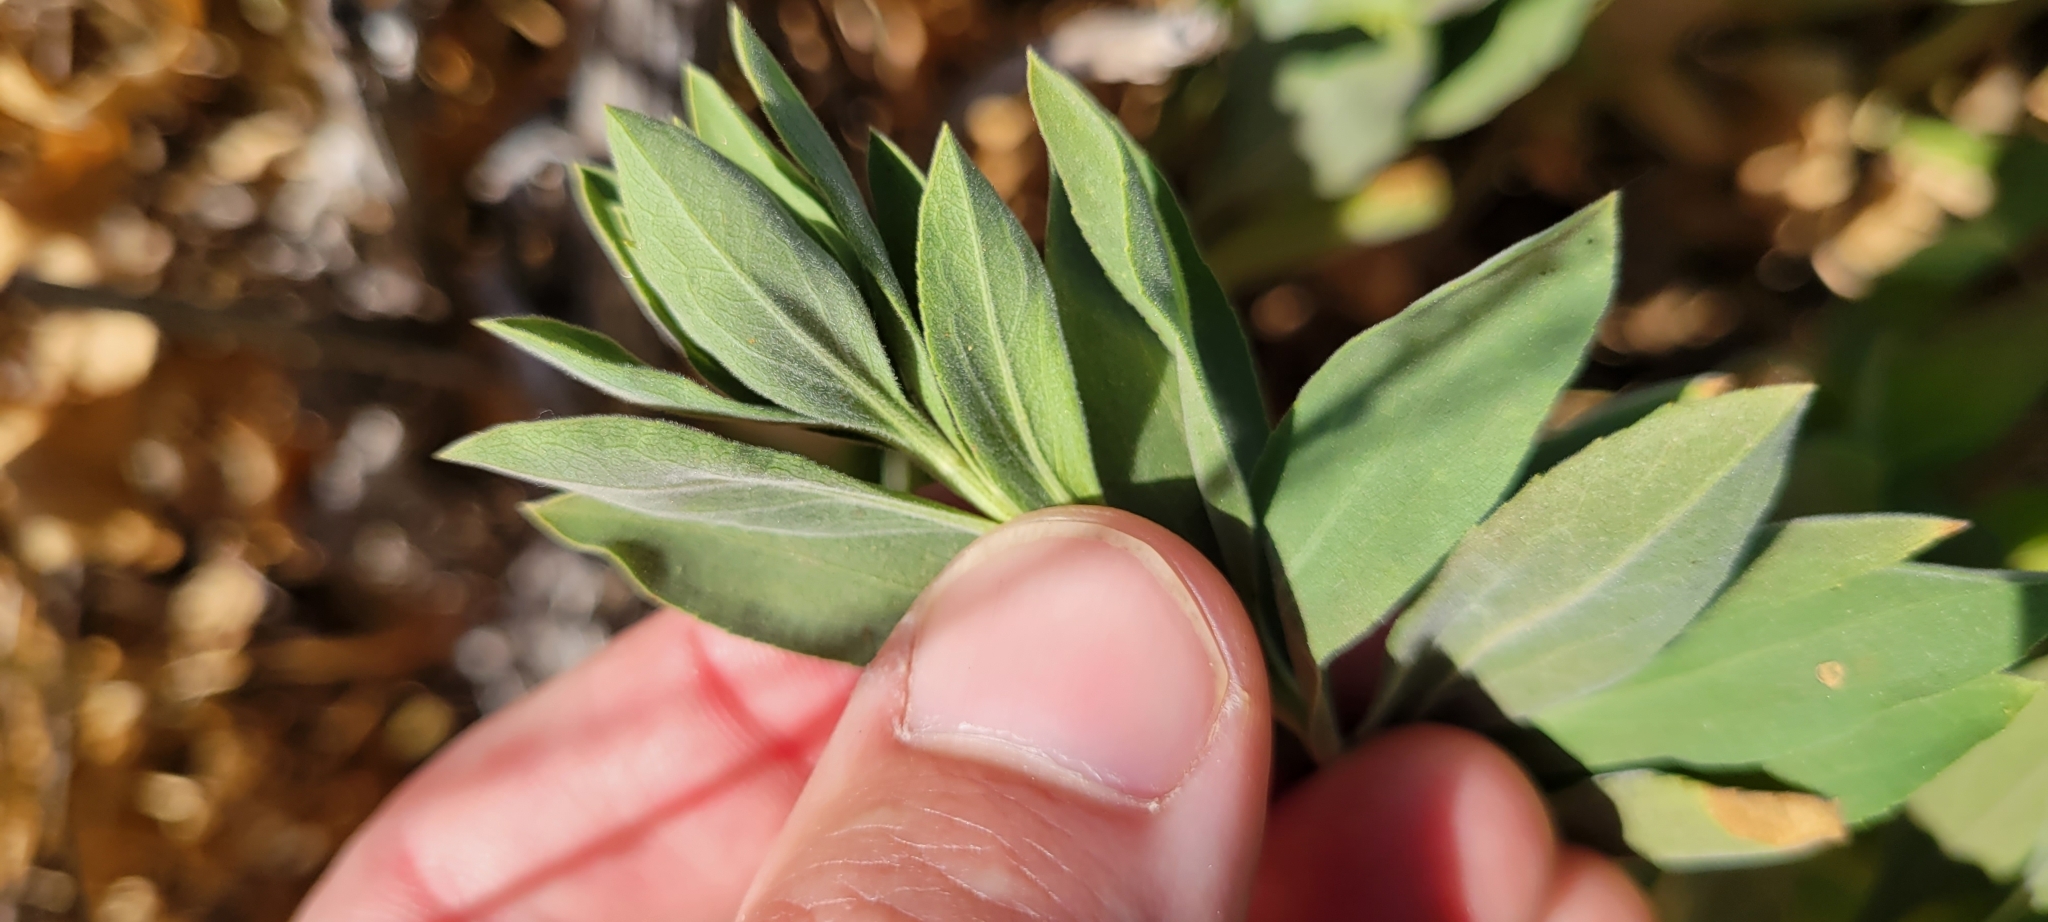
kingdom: Plantae
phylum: Tracheophyta
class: Magnoliopsida
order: Asterales
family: Asteraceae
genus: Solidago
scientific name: Solidago californica
